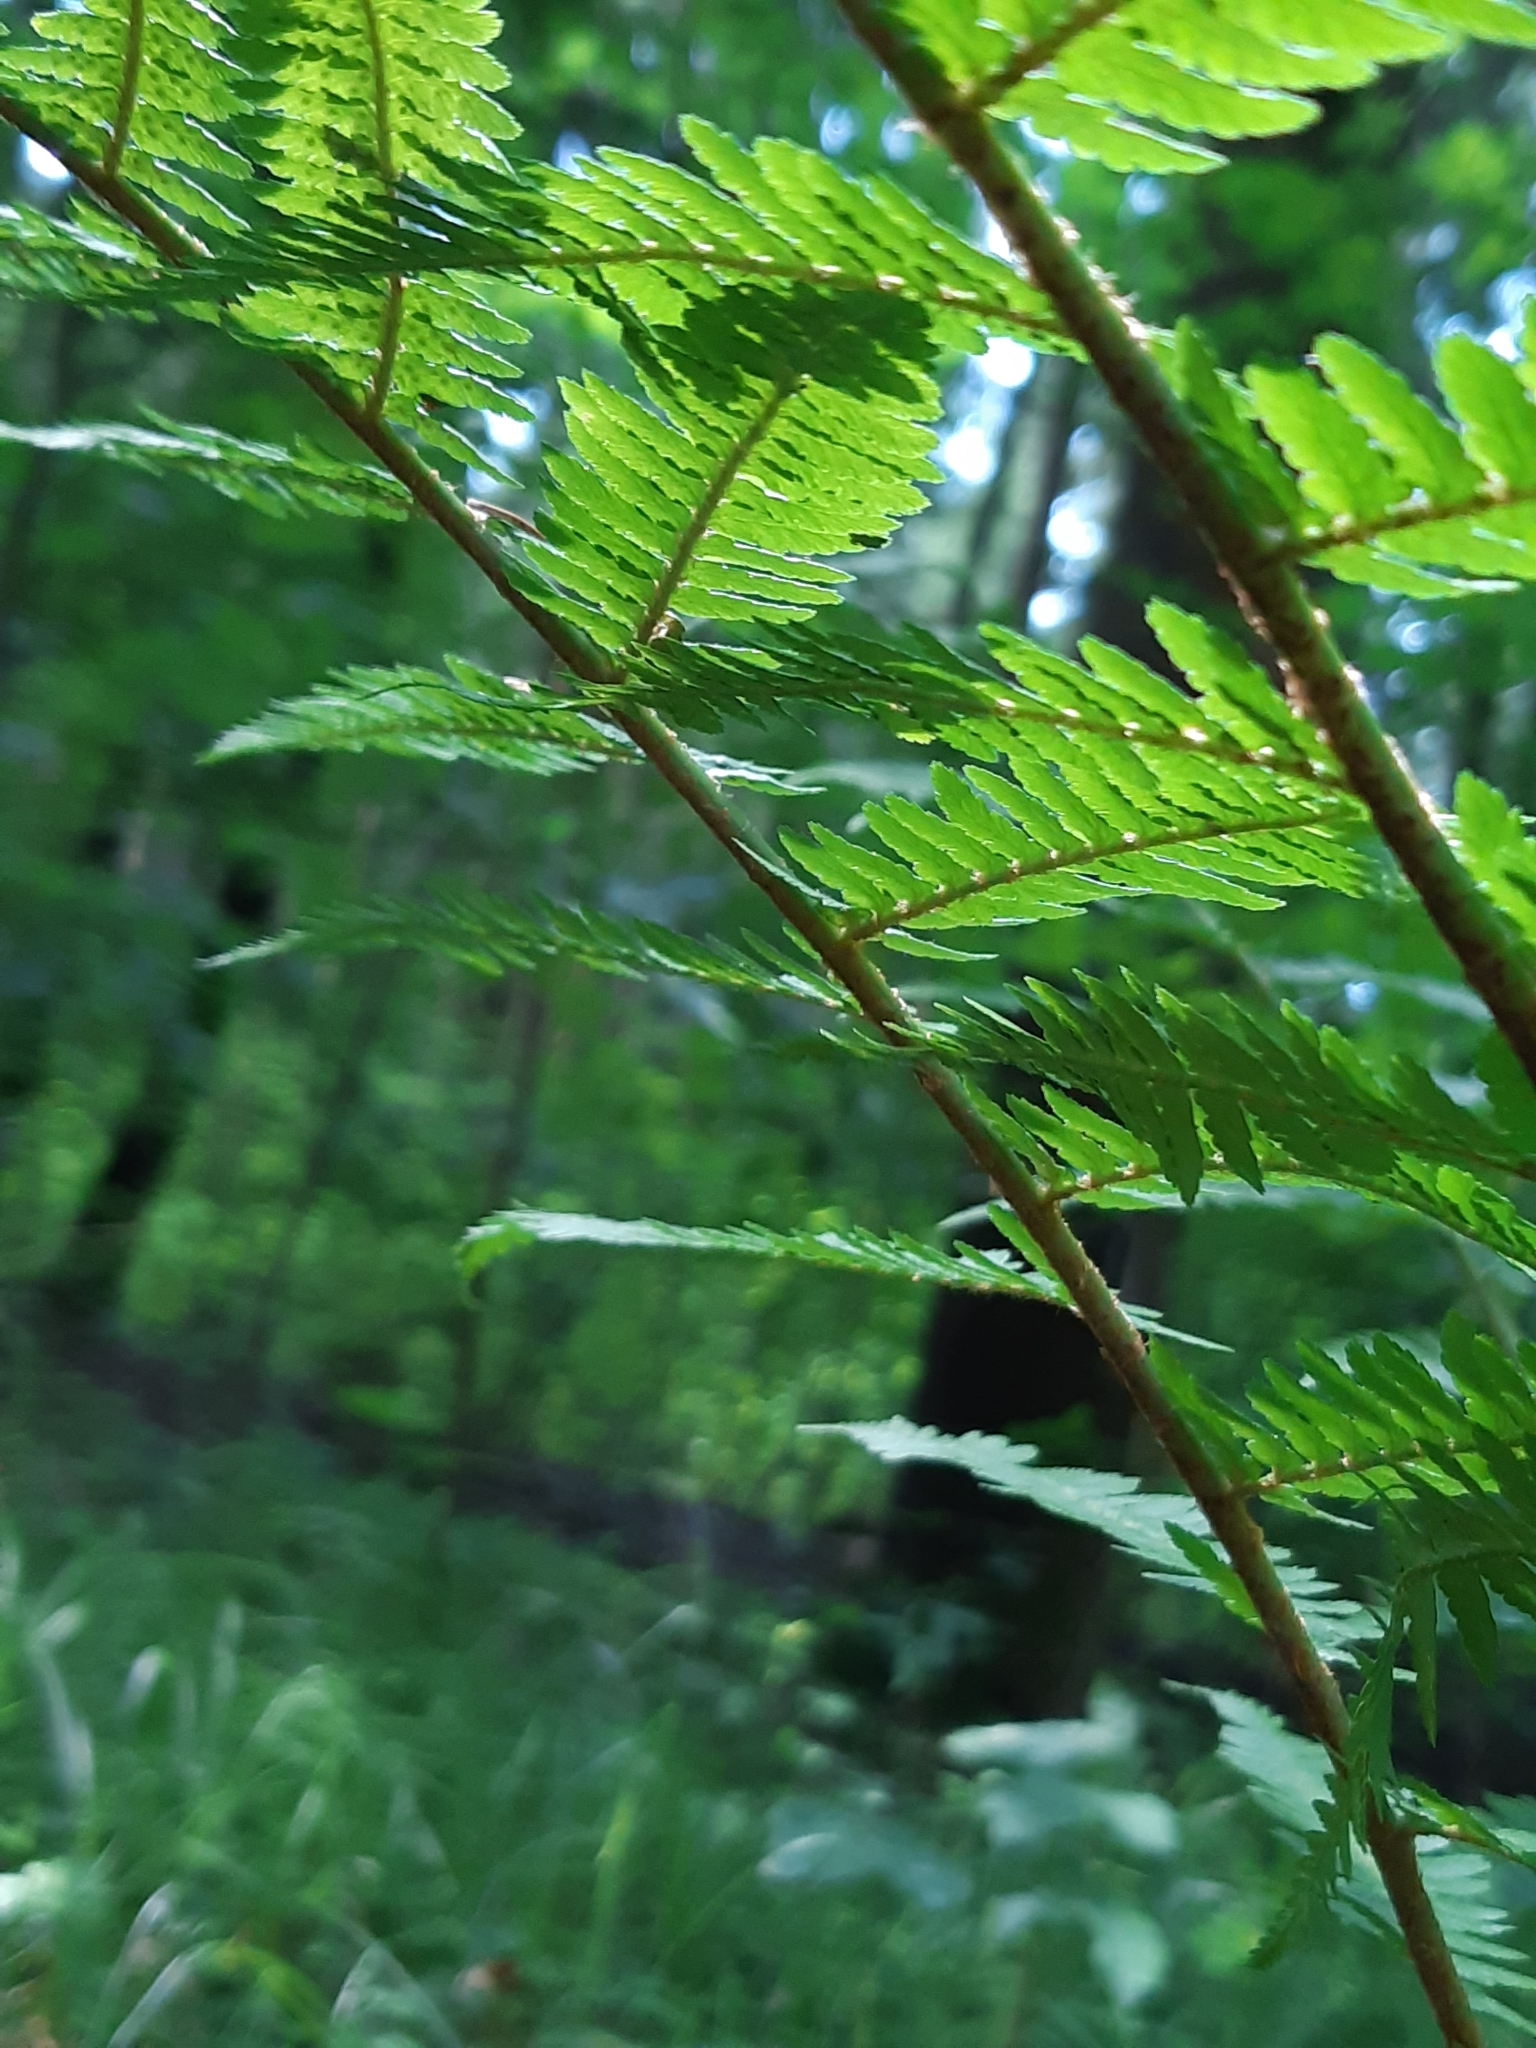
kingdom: Plantae
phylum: Tracheophyta
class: Polypodiopsida
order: Polypodiales
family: Dryopteridaceae
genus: Dryopteris
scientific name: Dryopteris filix-mas
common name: Male fern
